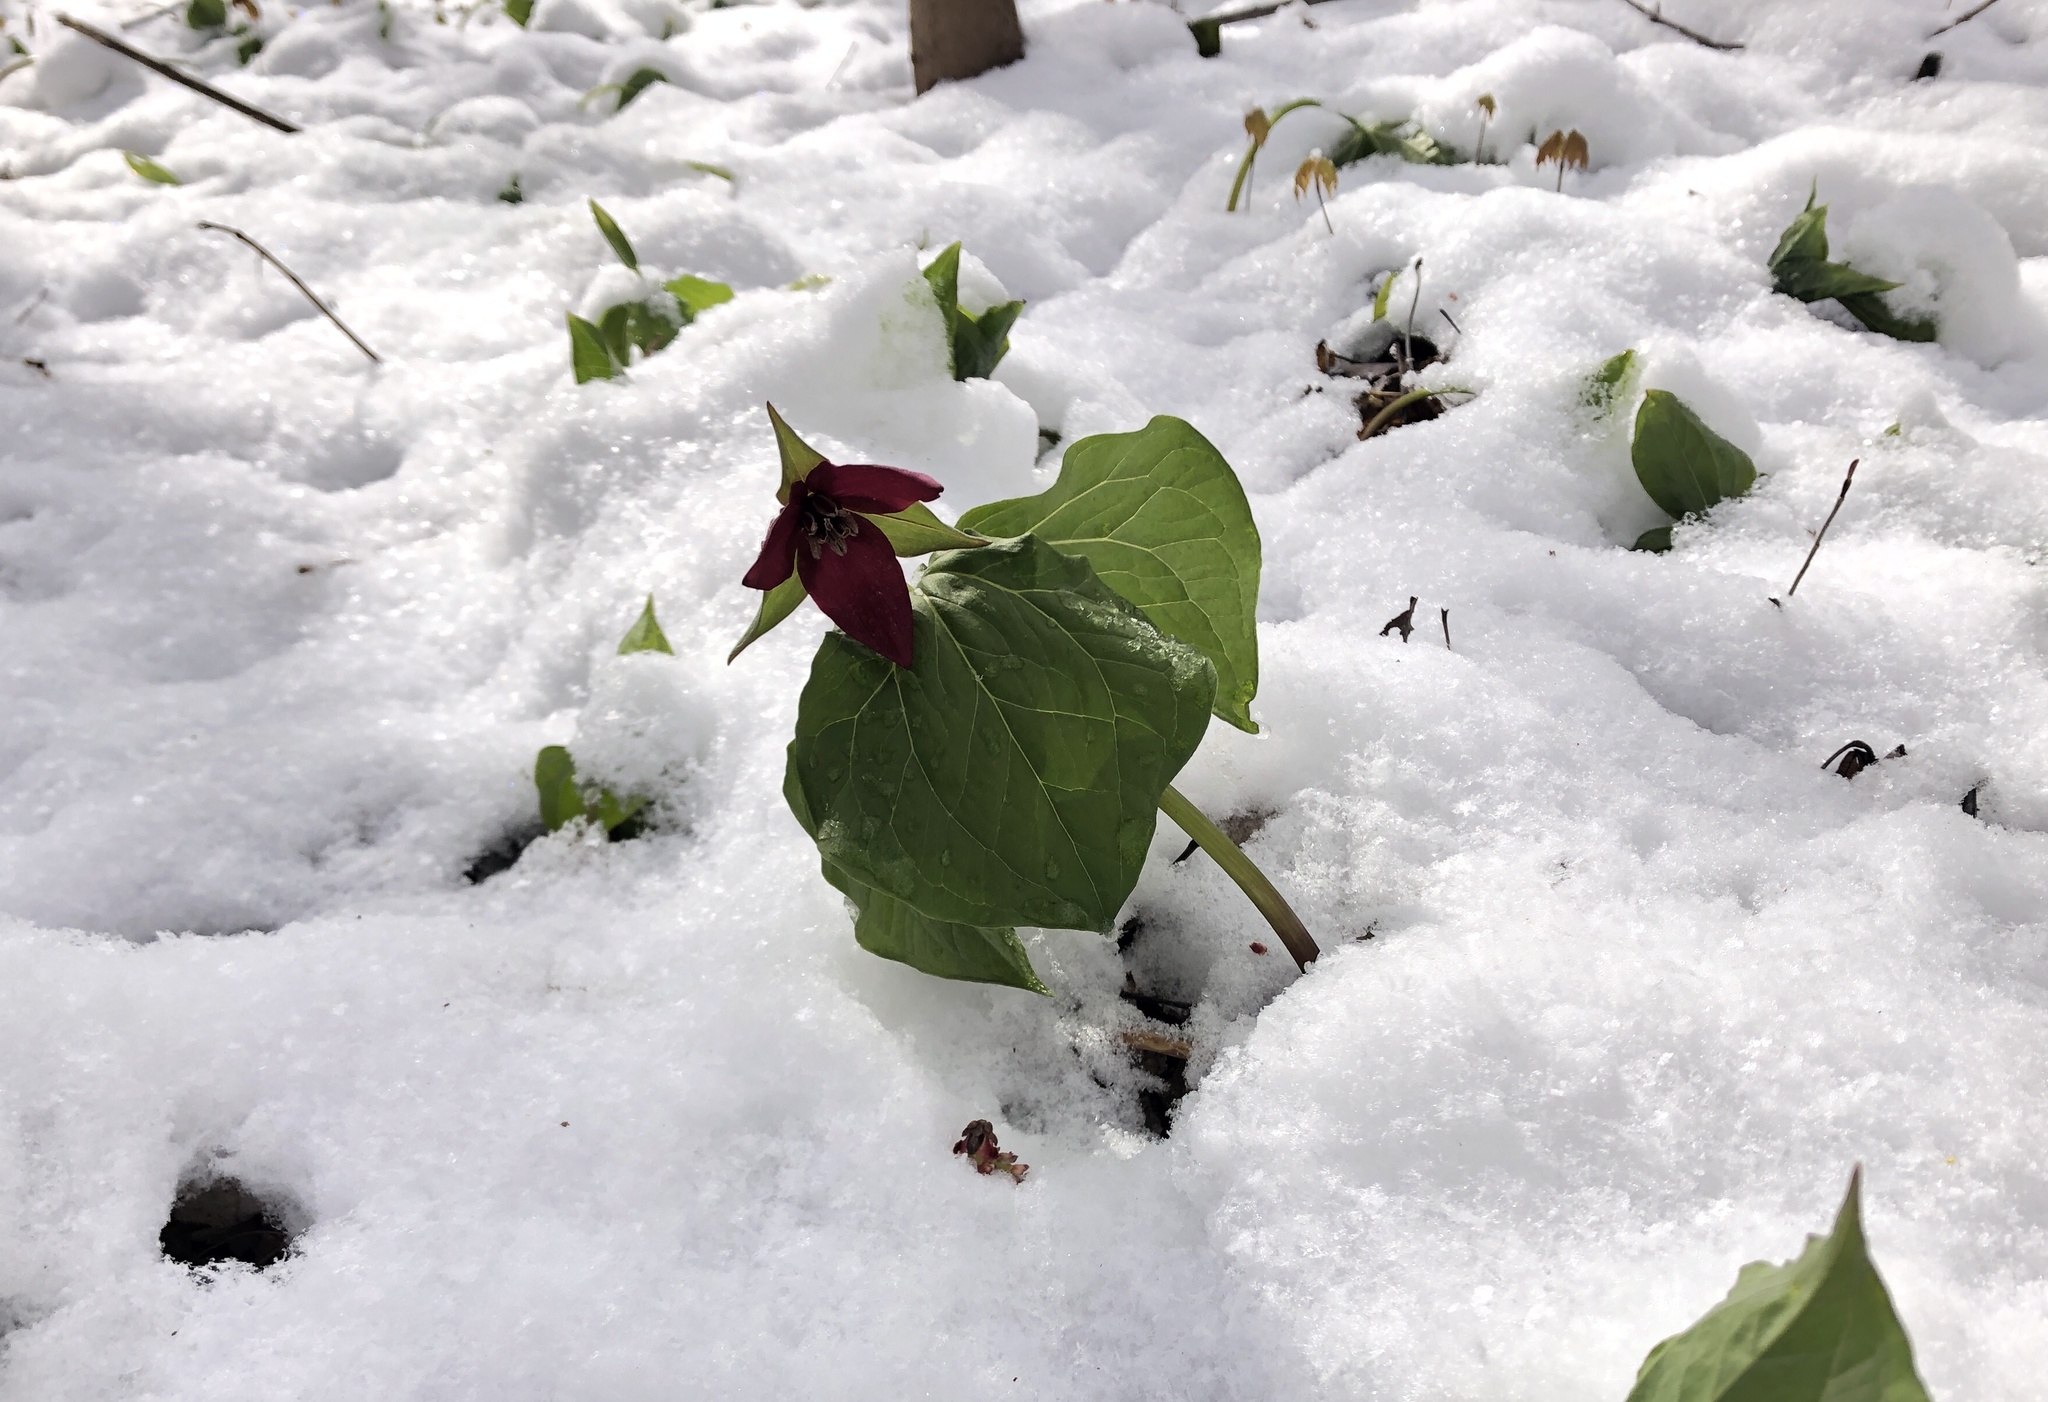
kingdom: Plantae
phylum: Tracheophyta
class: Liliopsida
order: Liliales
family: Melanthiaceae
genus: Trillium
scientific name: Trillium erectum
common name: Purple trillium
